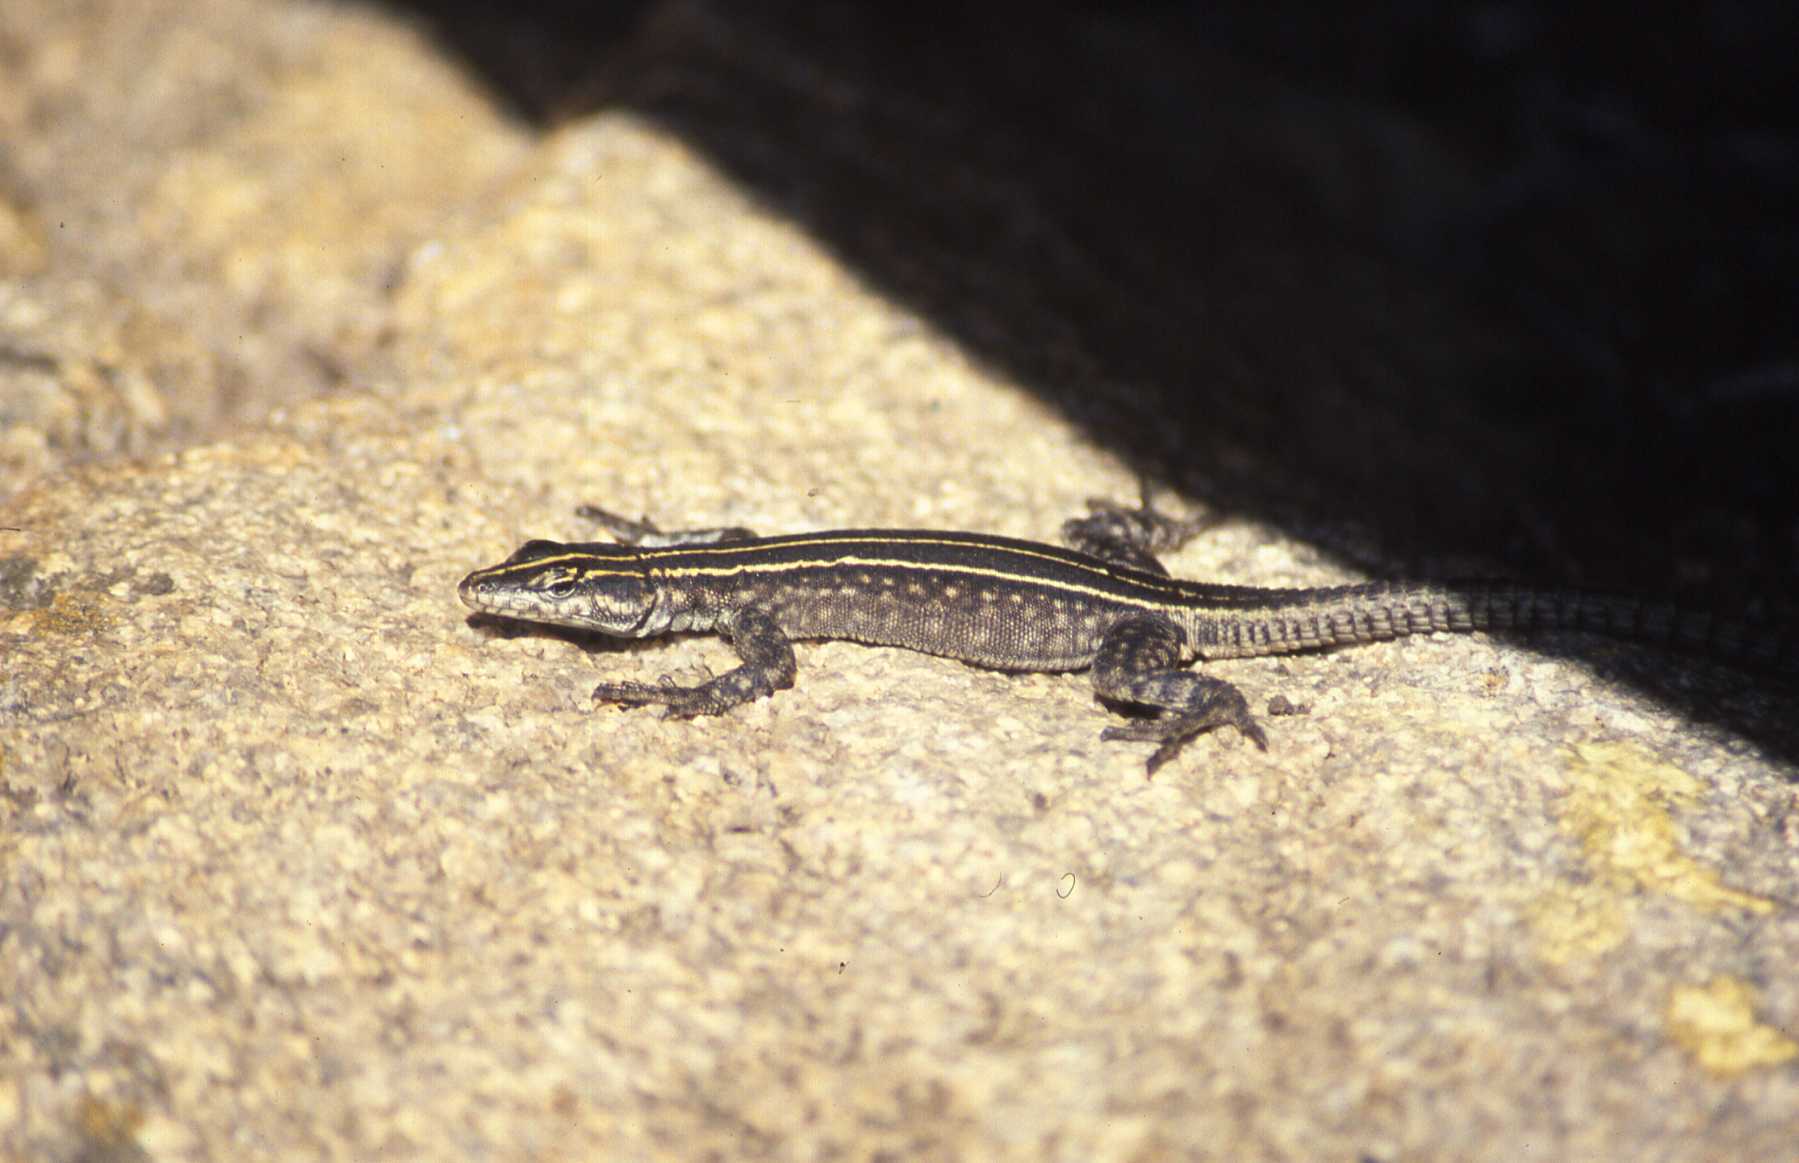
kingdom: Animalia
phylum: Chordata
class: Squamata
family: Cordylidae
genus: Platysaurus
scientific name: Platysaurus intermedius
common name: Common flat lizard
